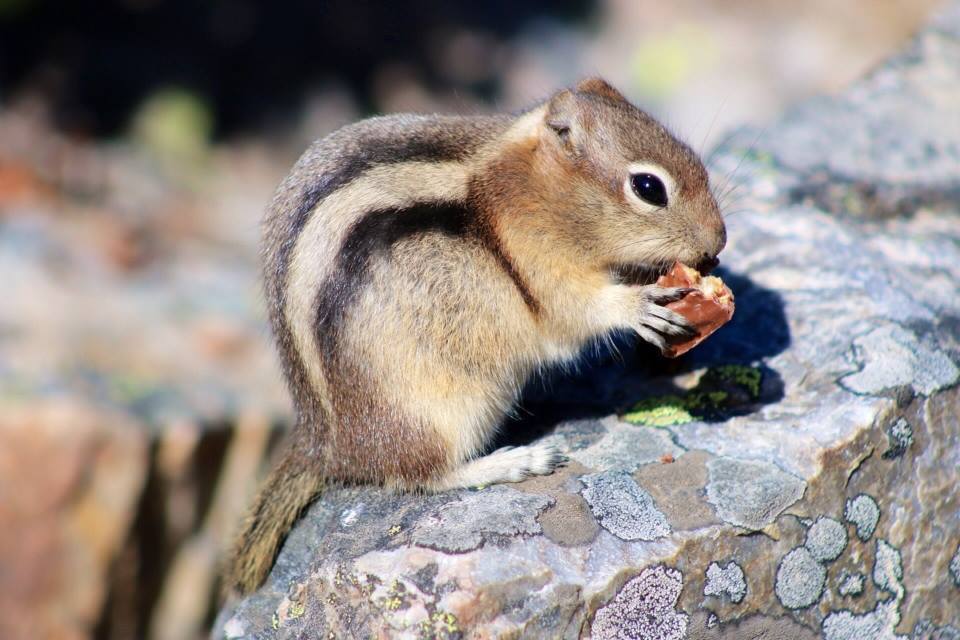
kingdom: Animalia
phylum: Chordata
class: Mammalia
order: Rodentia
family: Sciuridae
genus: Callospermophilus
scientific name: Callospermophilus lateralis
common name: Golden-mantled ground squirrel
